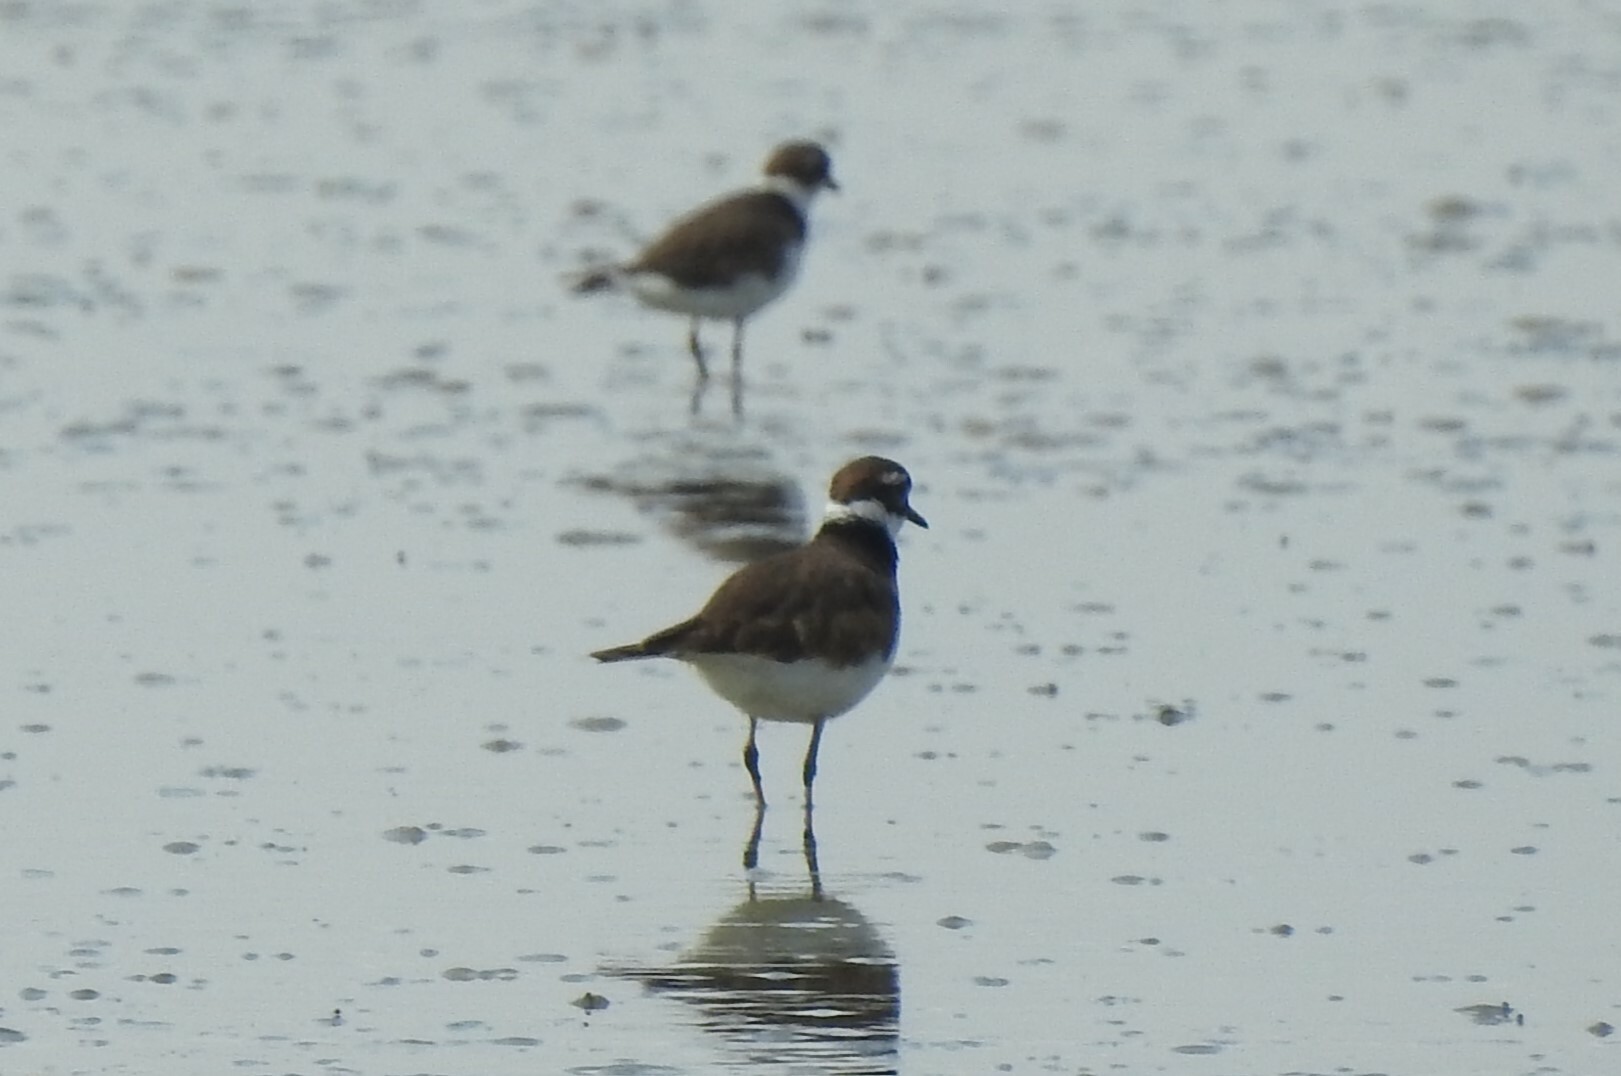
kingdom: Animalia
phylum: Chordata
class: Aves
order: Charadriiformes
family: Charadriidae
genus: Charadrius
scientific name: Charadrius vociferus
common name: Killdeer
